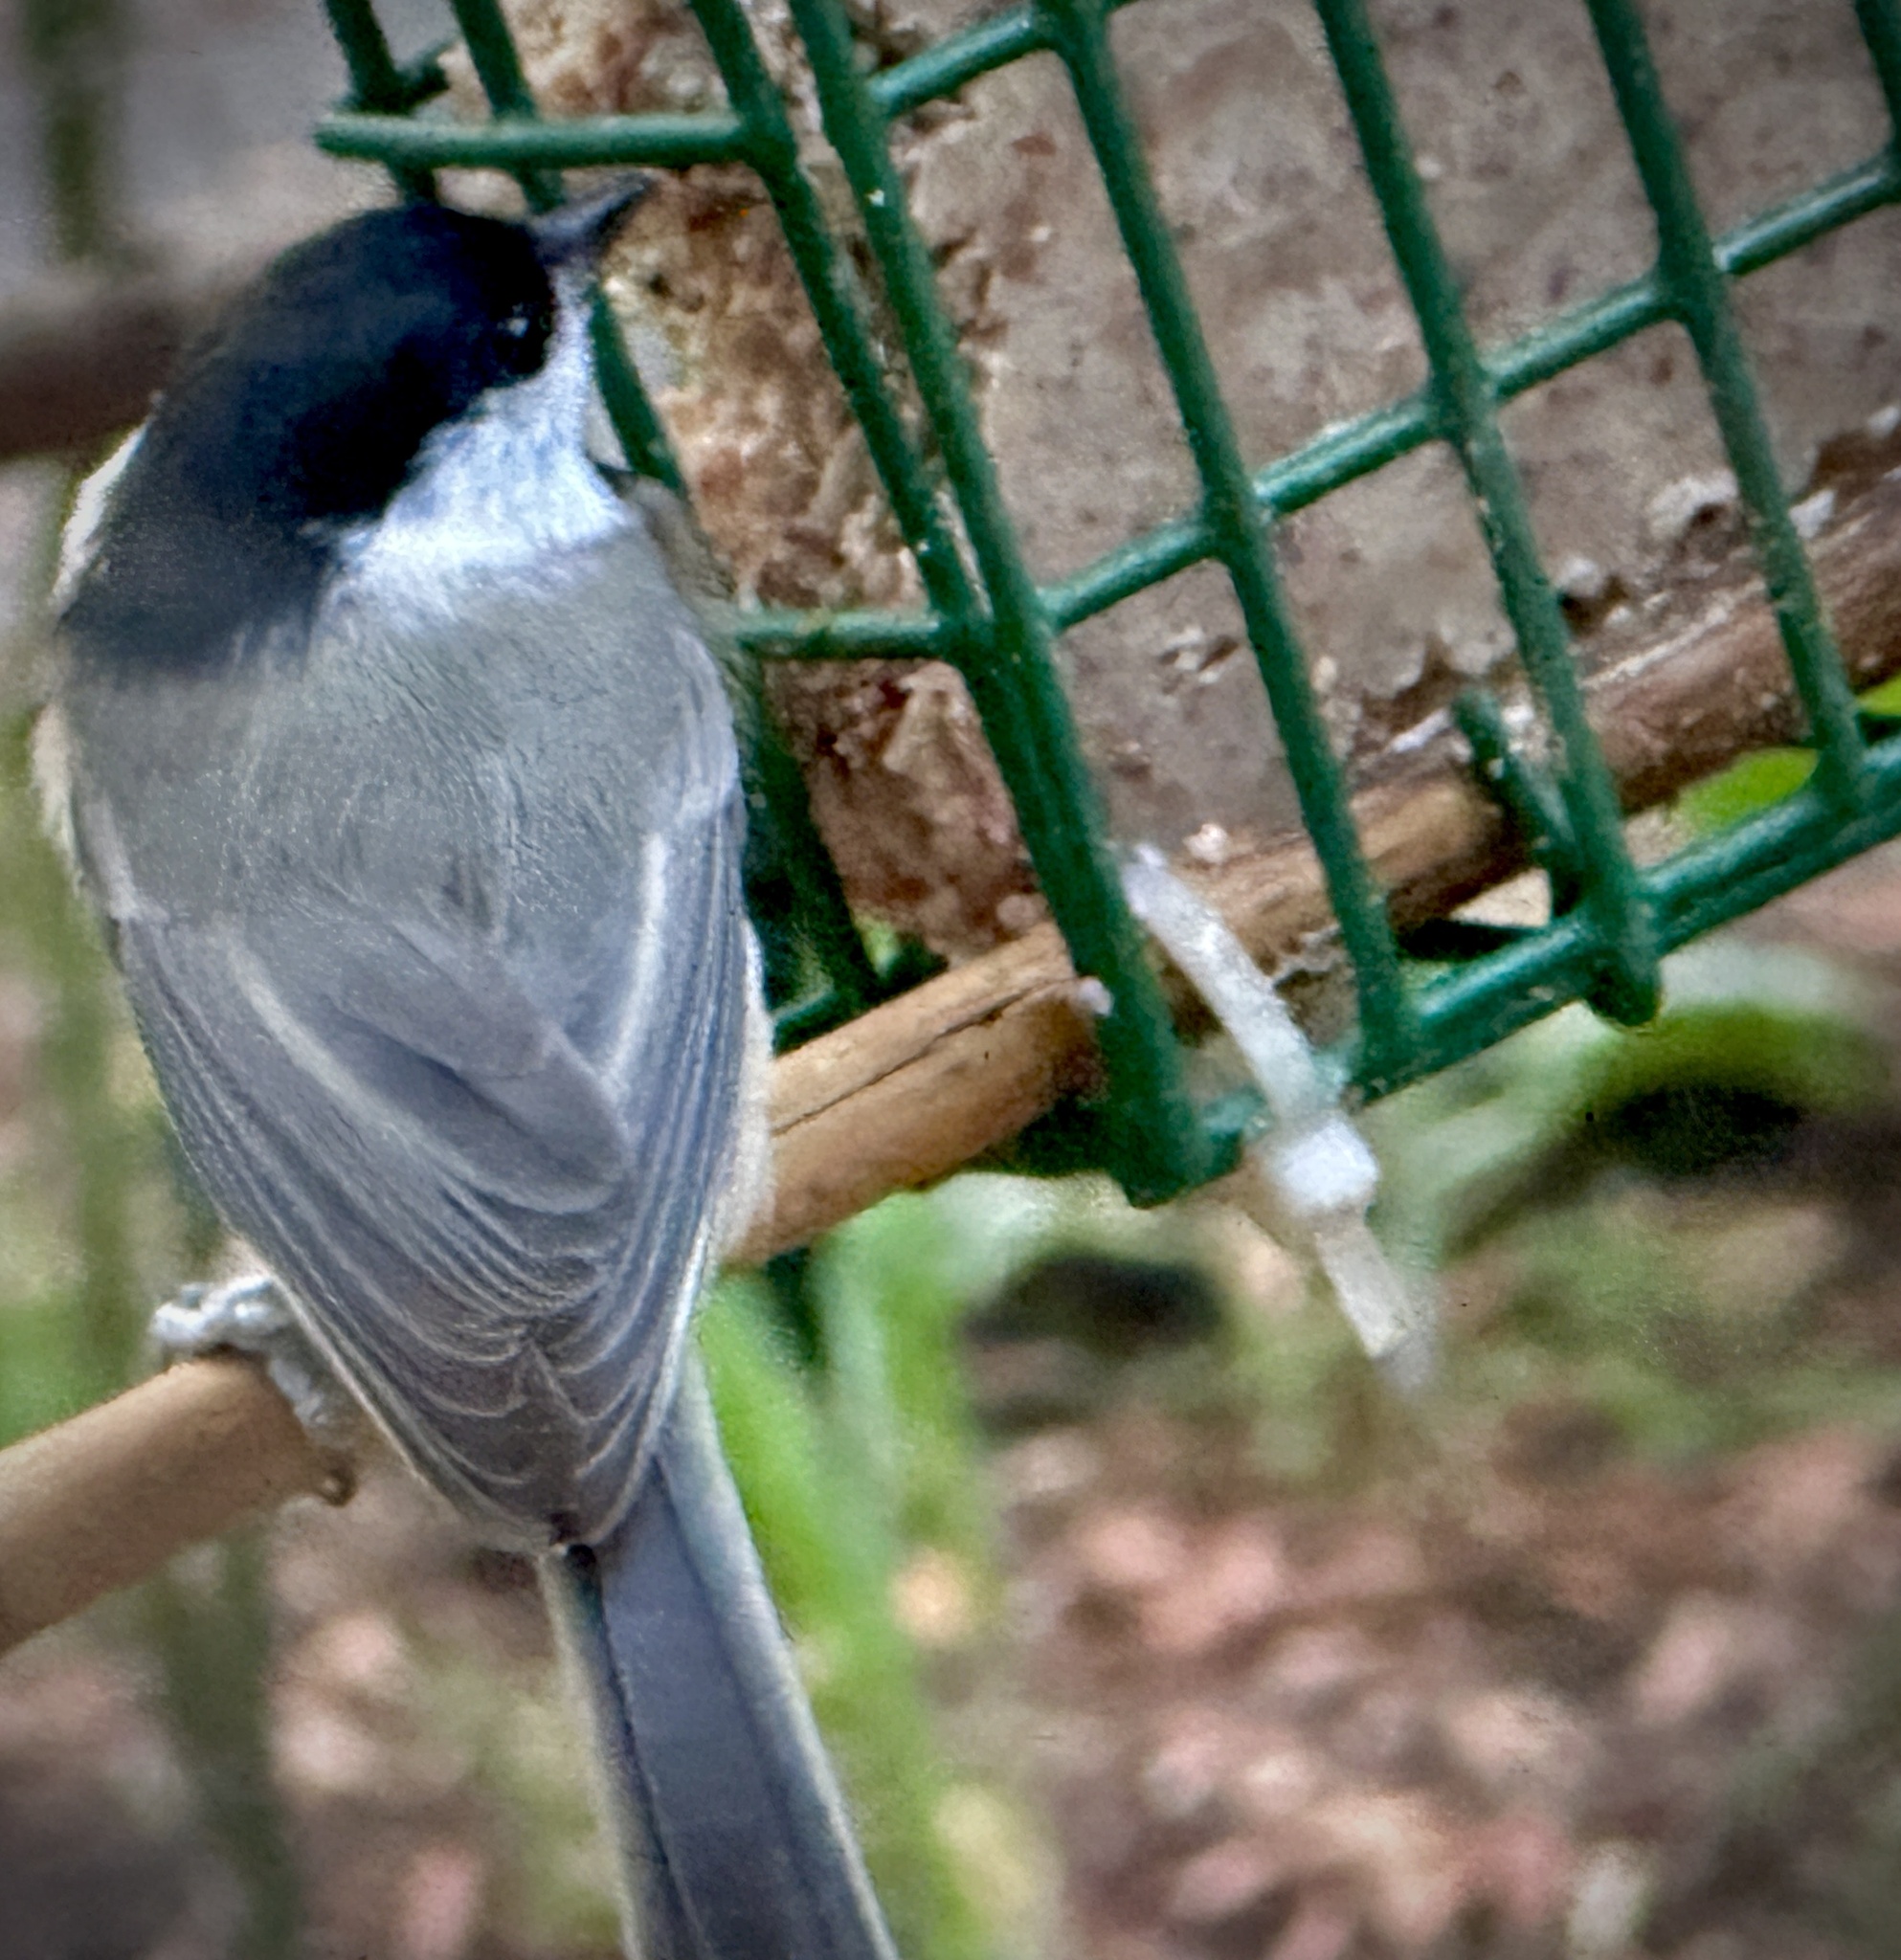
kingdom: Animalia
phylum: Chordata
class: Aves
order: Passeriformes
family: Paridae
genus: Poecile
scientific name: Poecile carolinensis
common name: Carolina chickadee
